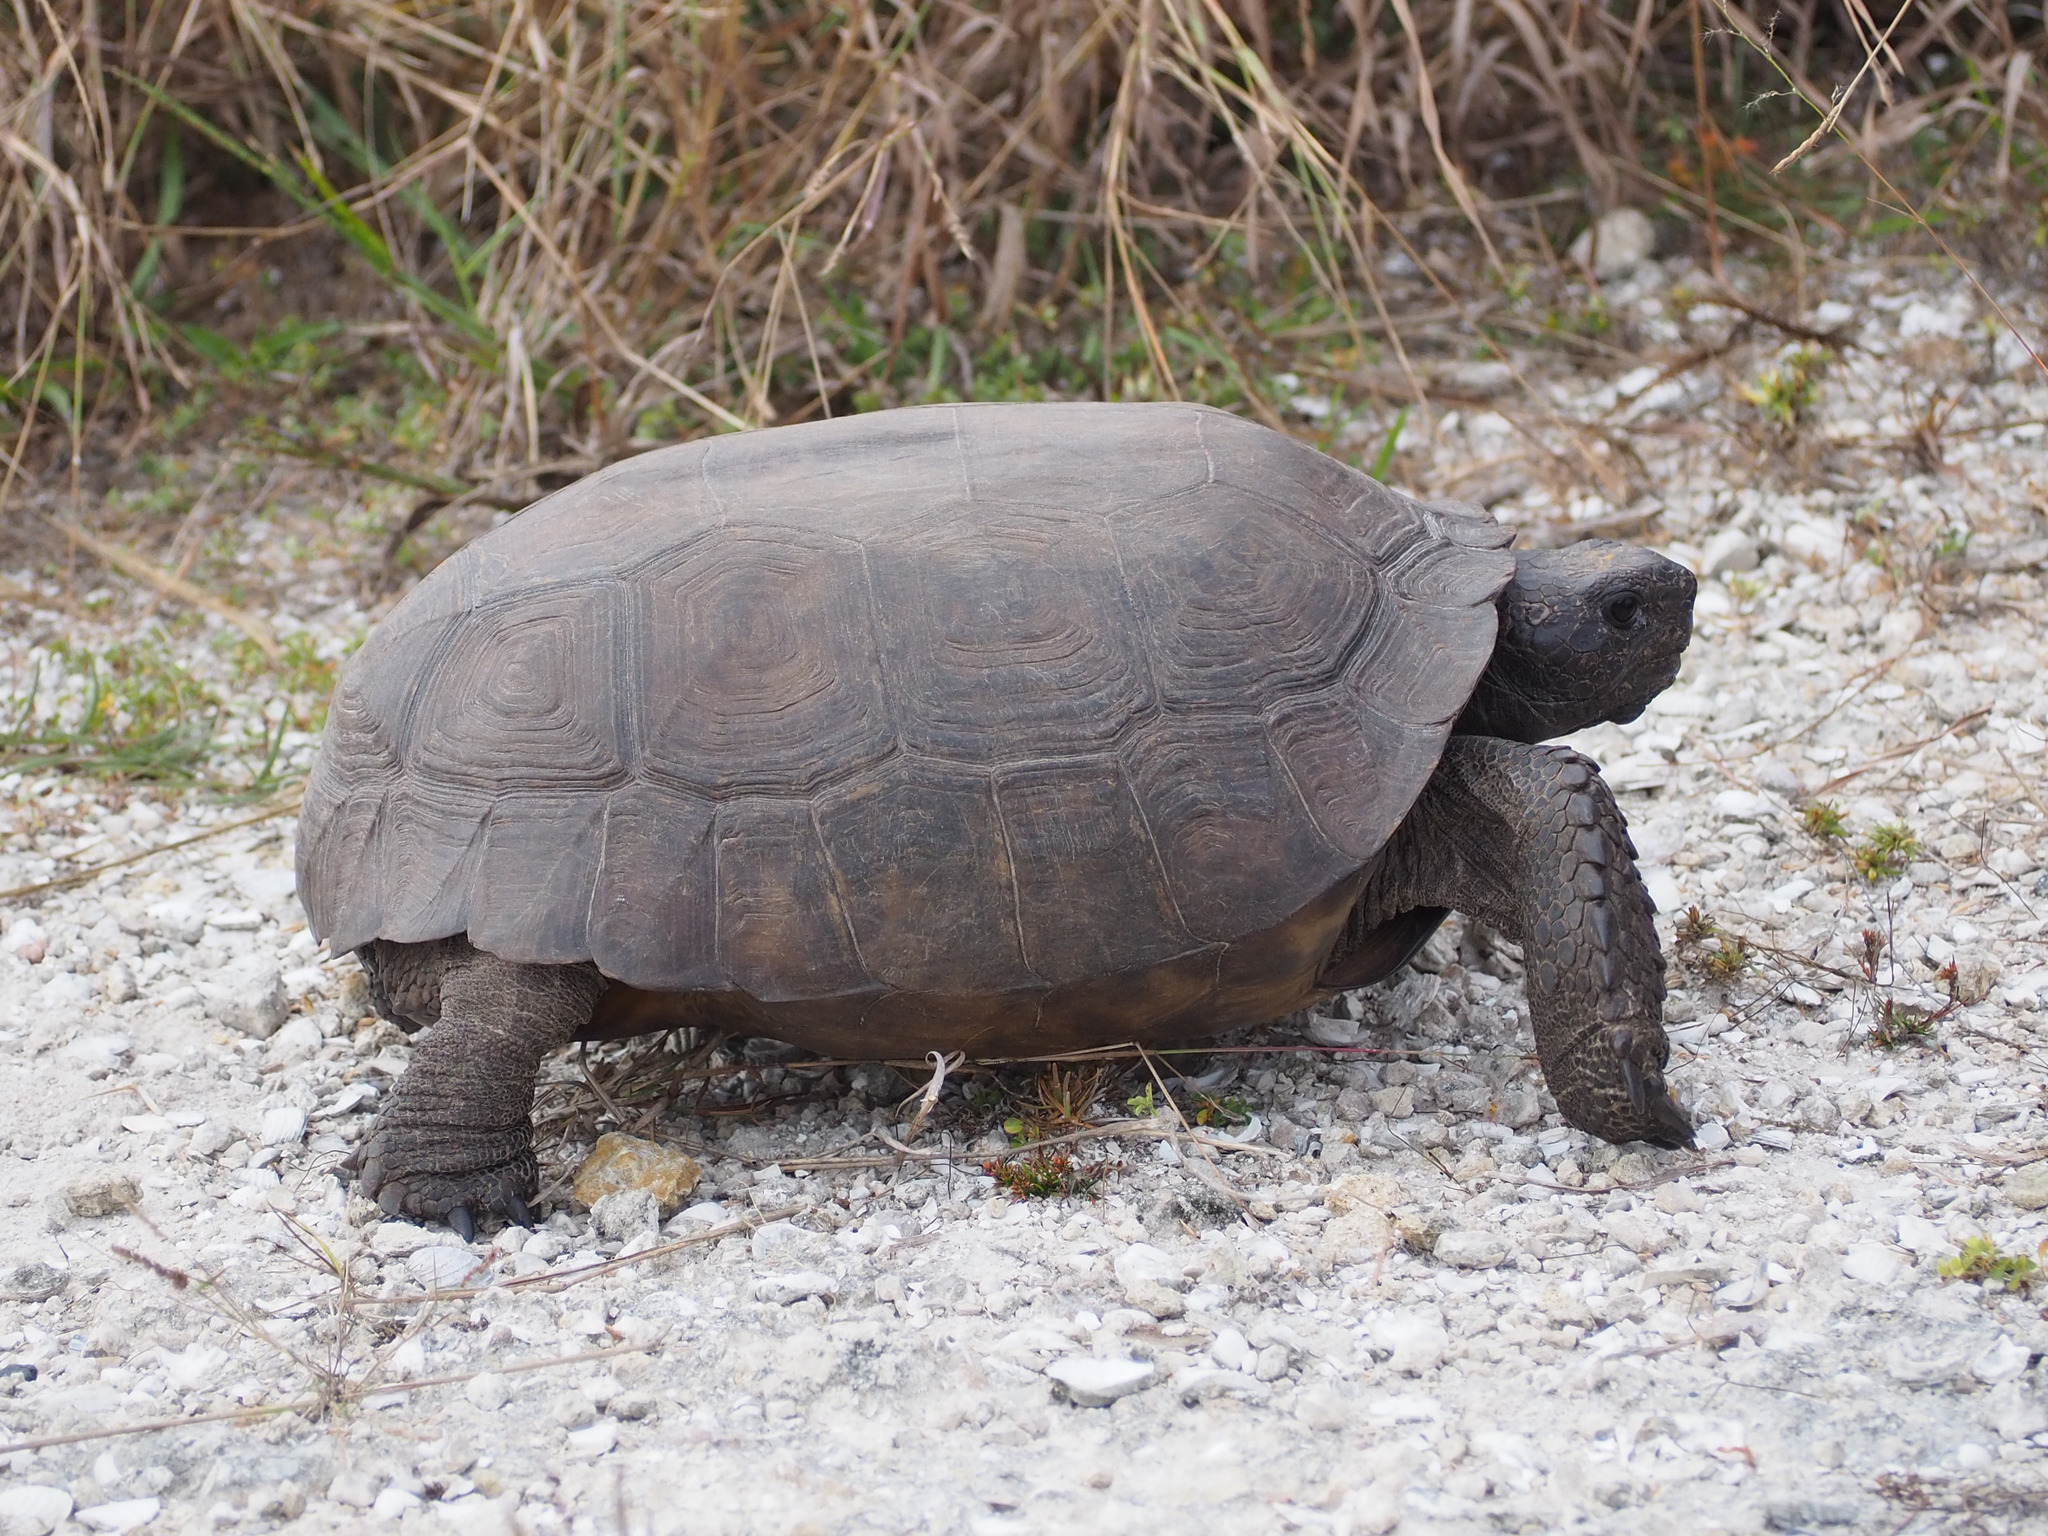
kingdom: Animalia
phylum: Chordata
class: Testudines
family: Testudinidae
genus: Gopherus
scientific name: Gopherus polyphemus
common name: Florida gopher tortoise
